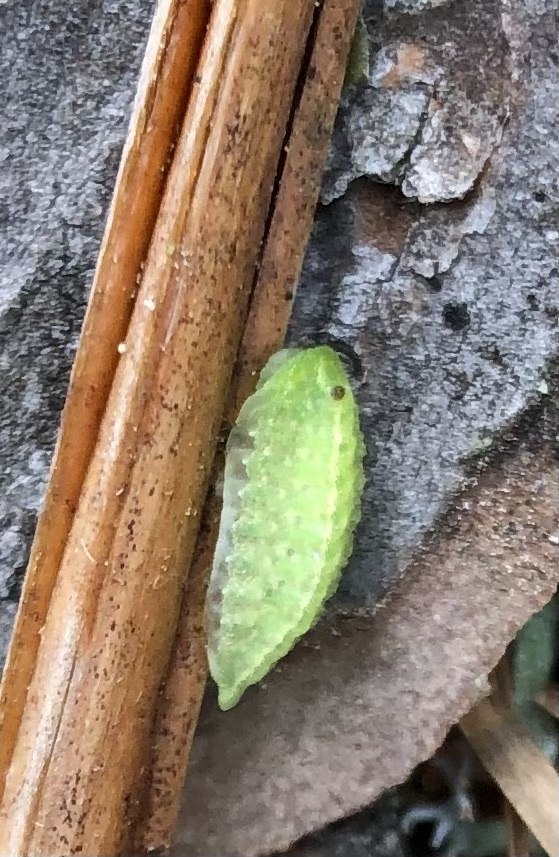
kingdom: Animalia
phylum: Arthropoda
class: Insecta
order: Lepidoptera
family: Limacodidae
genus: Lithacodes
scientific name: Lithacodes fasciola
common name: Yellow-shouldered slug moth
